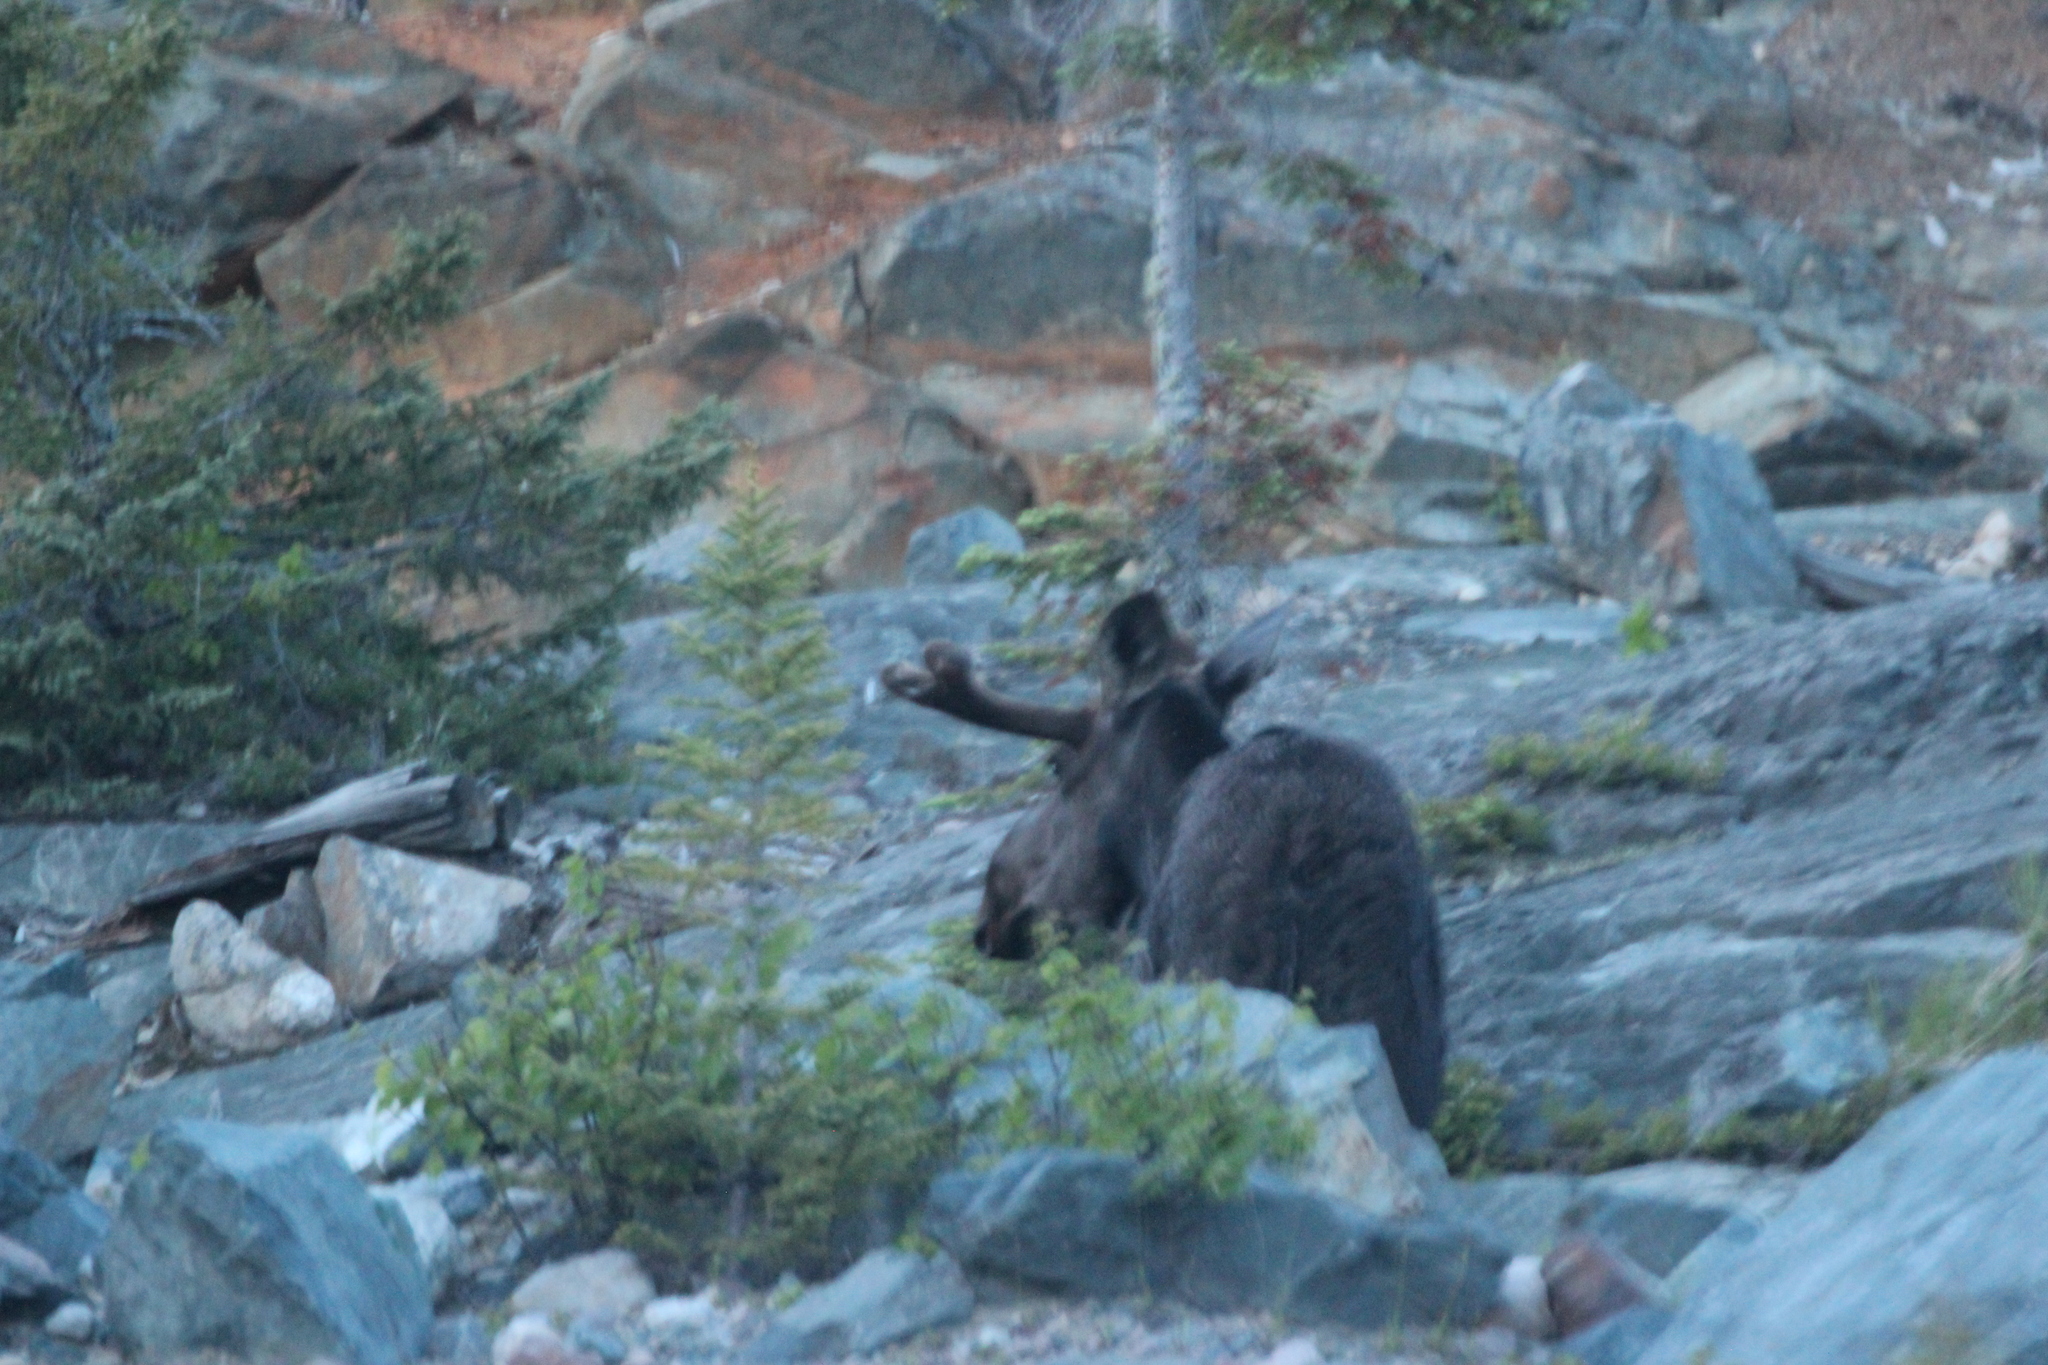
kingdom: Animalia
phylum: Chordata
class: Mammalia
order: Artiodactyla
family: Cervidae
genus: Alces
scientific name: Alces alces
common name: Moose
